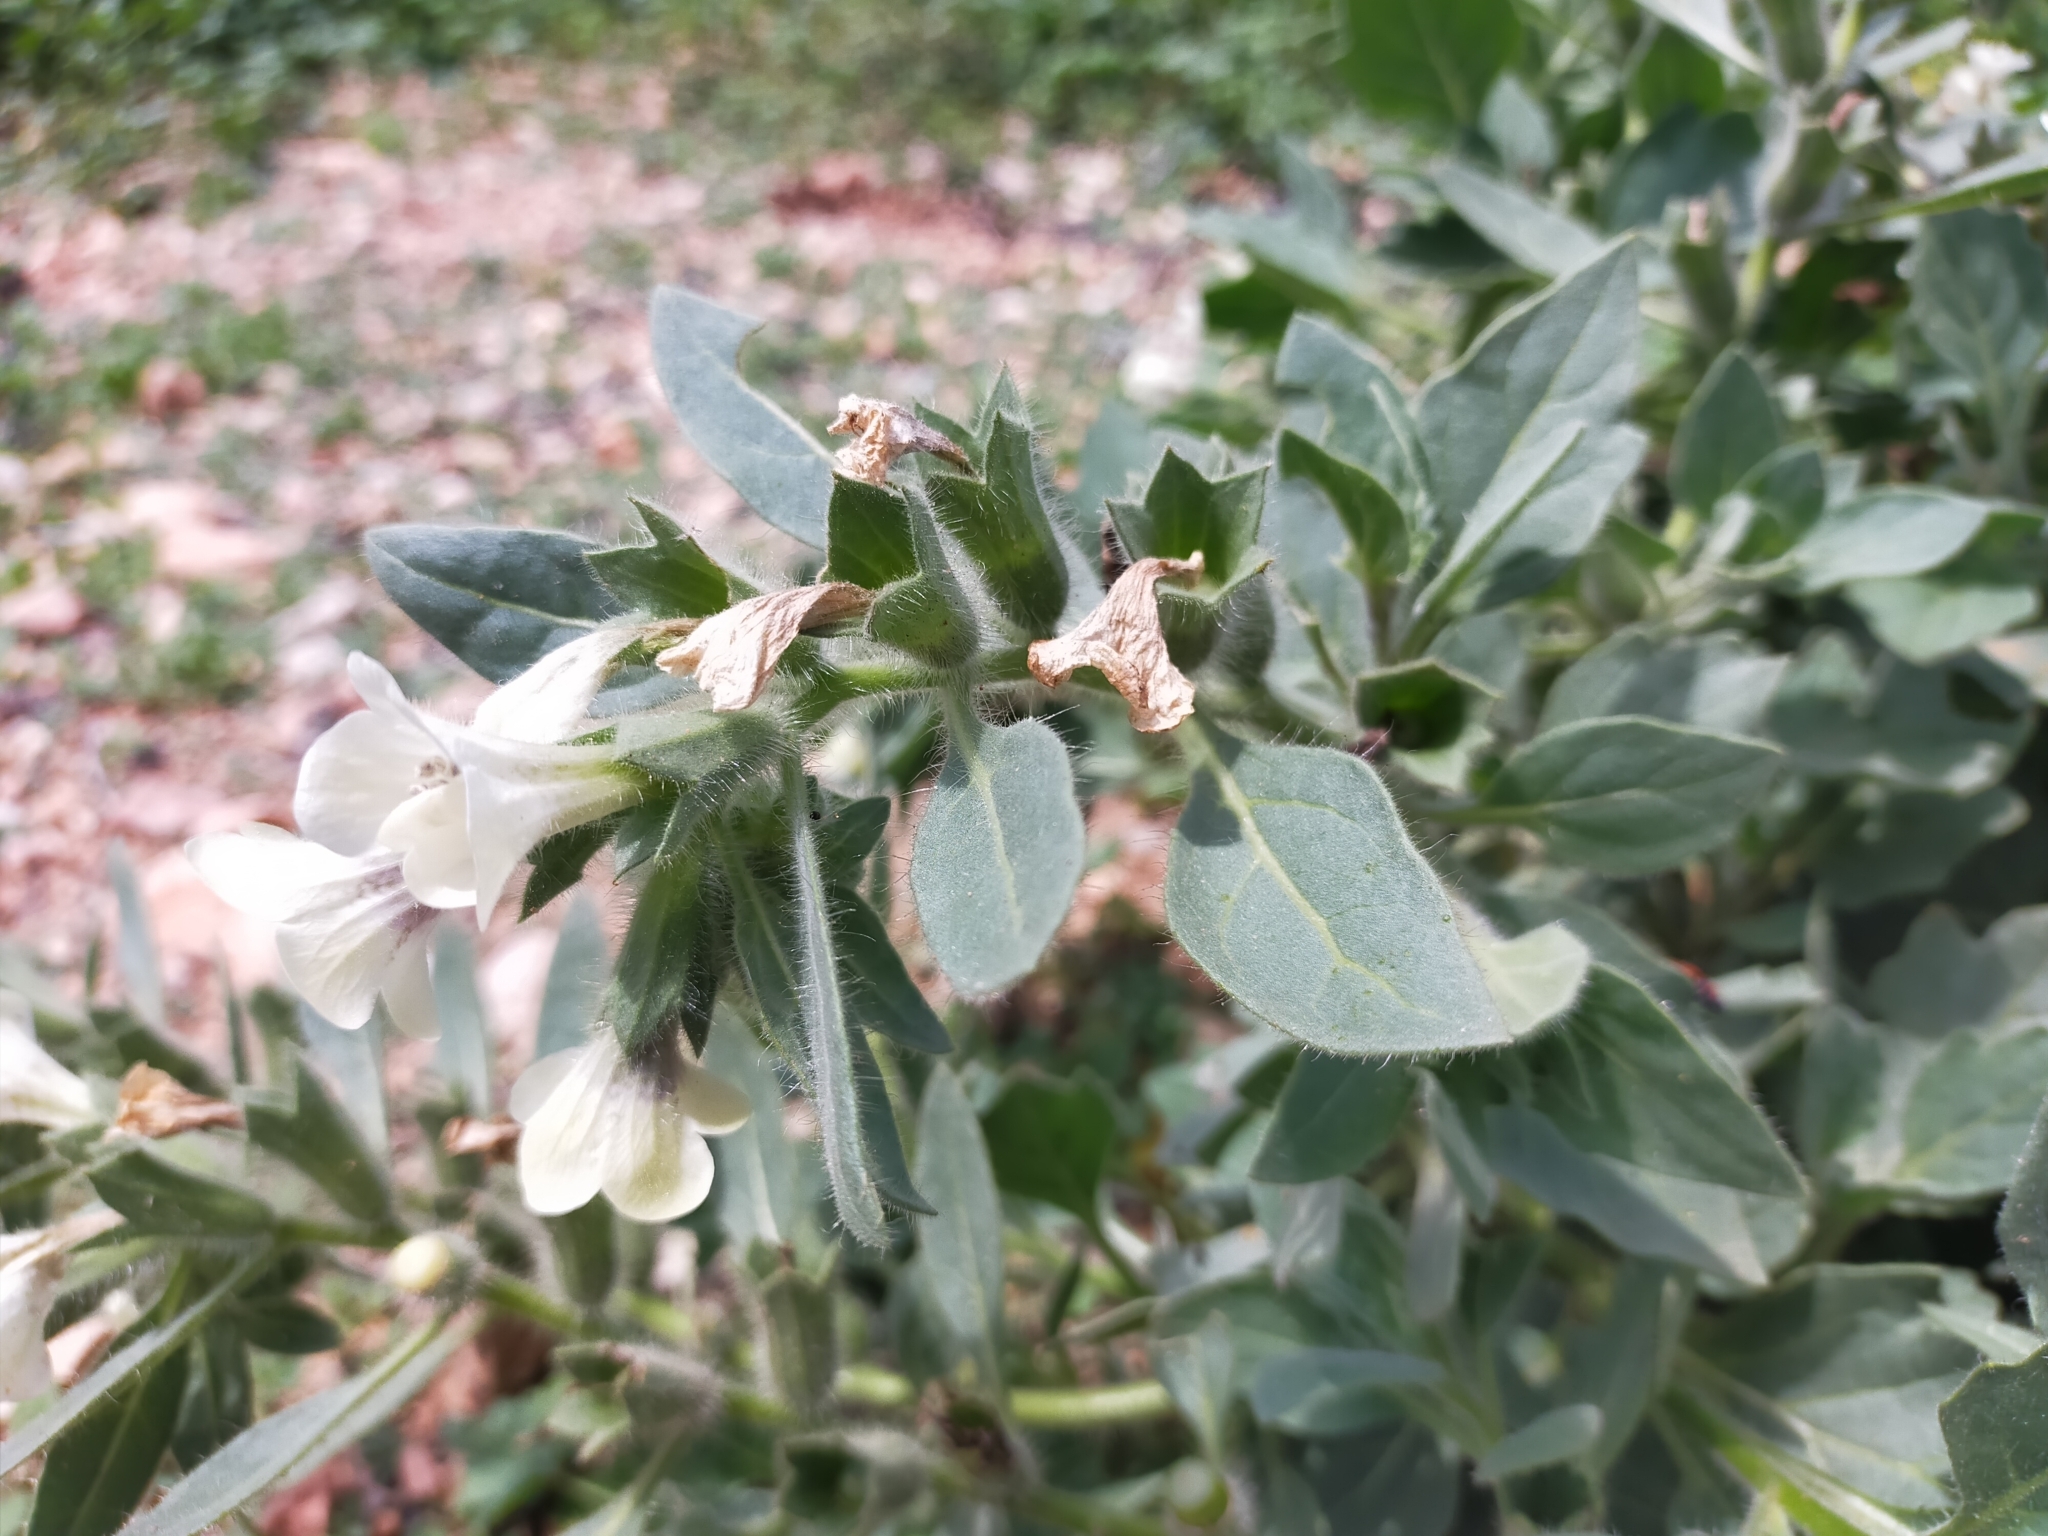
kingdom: Plantae
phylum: Tracheophyta
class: Magnoliopsida
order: Solanales
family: Solanaceae
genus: Hyoscyamus
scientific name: Hyoscyamus albus
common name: White henbane
